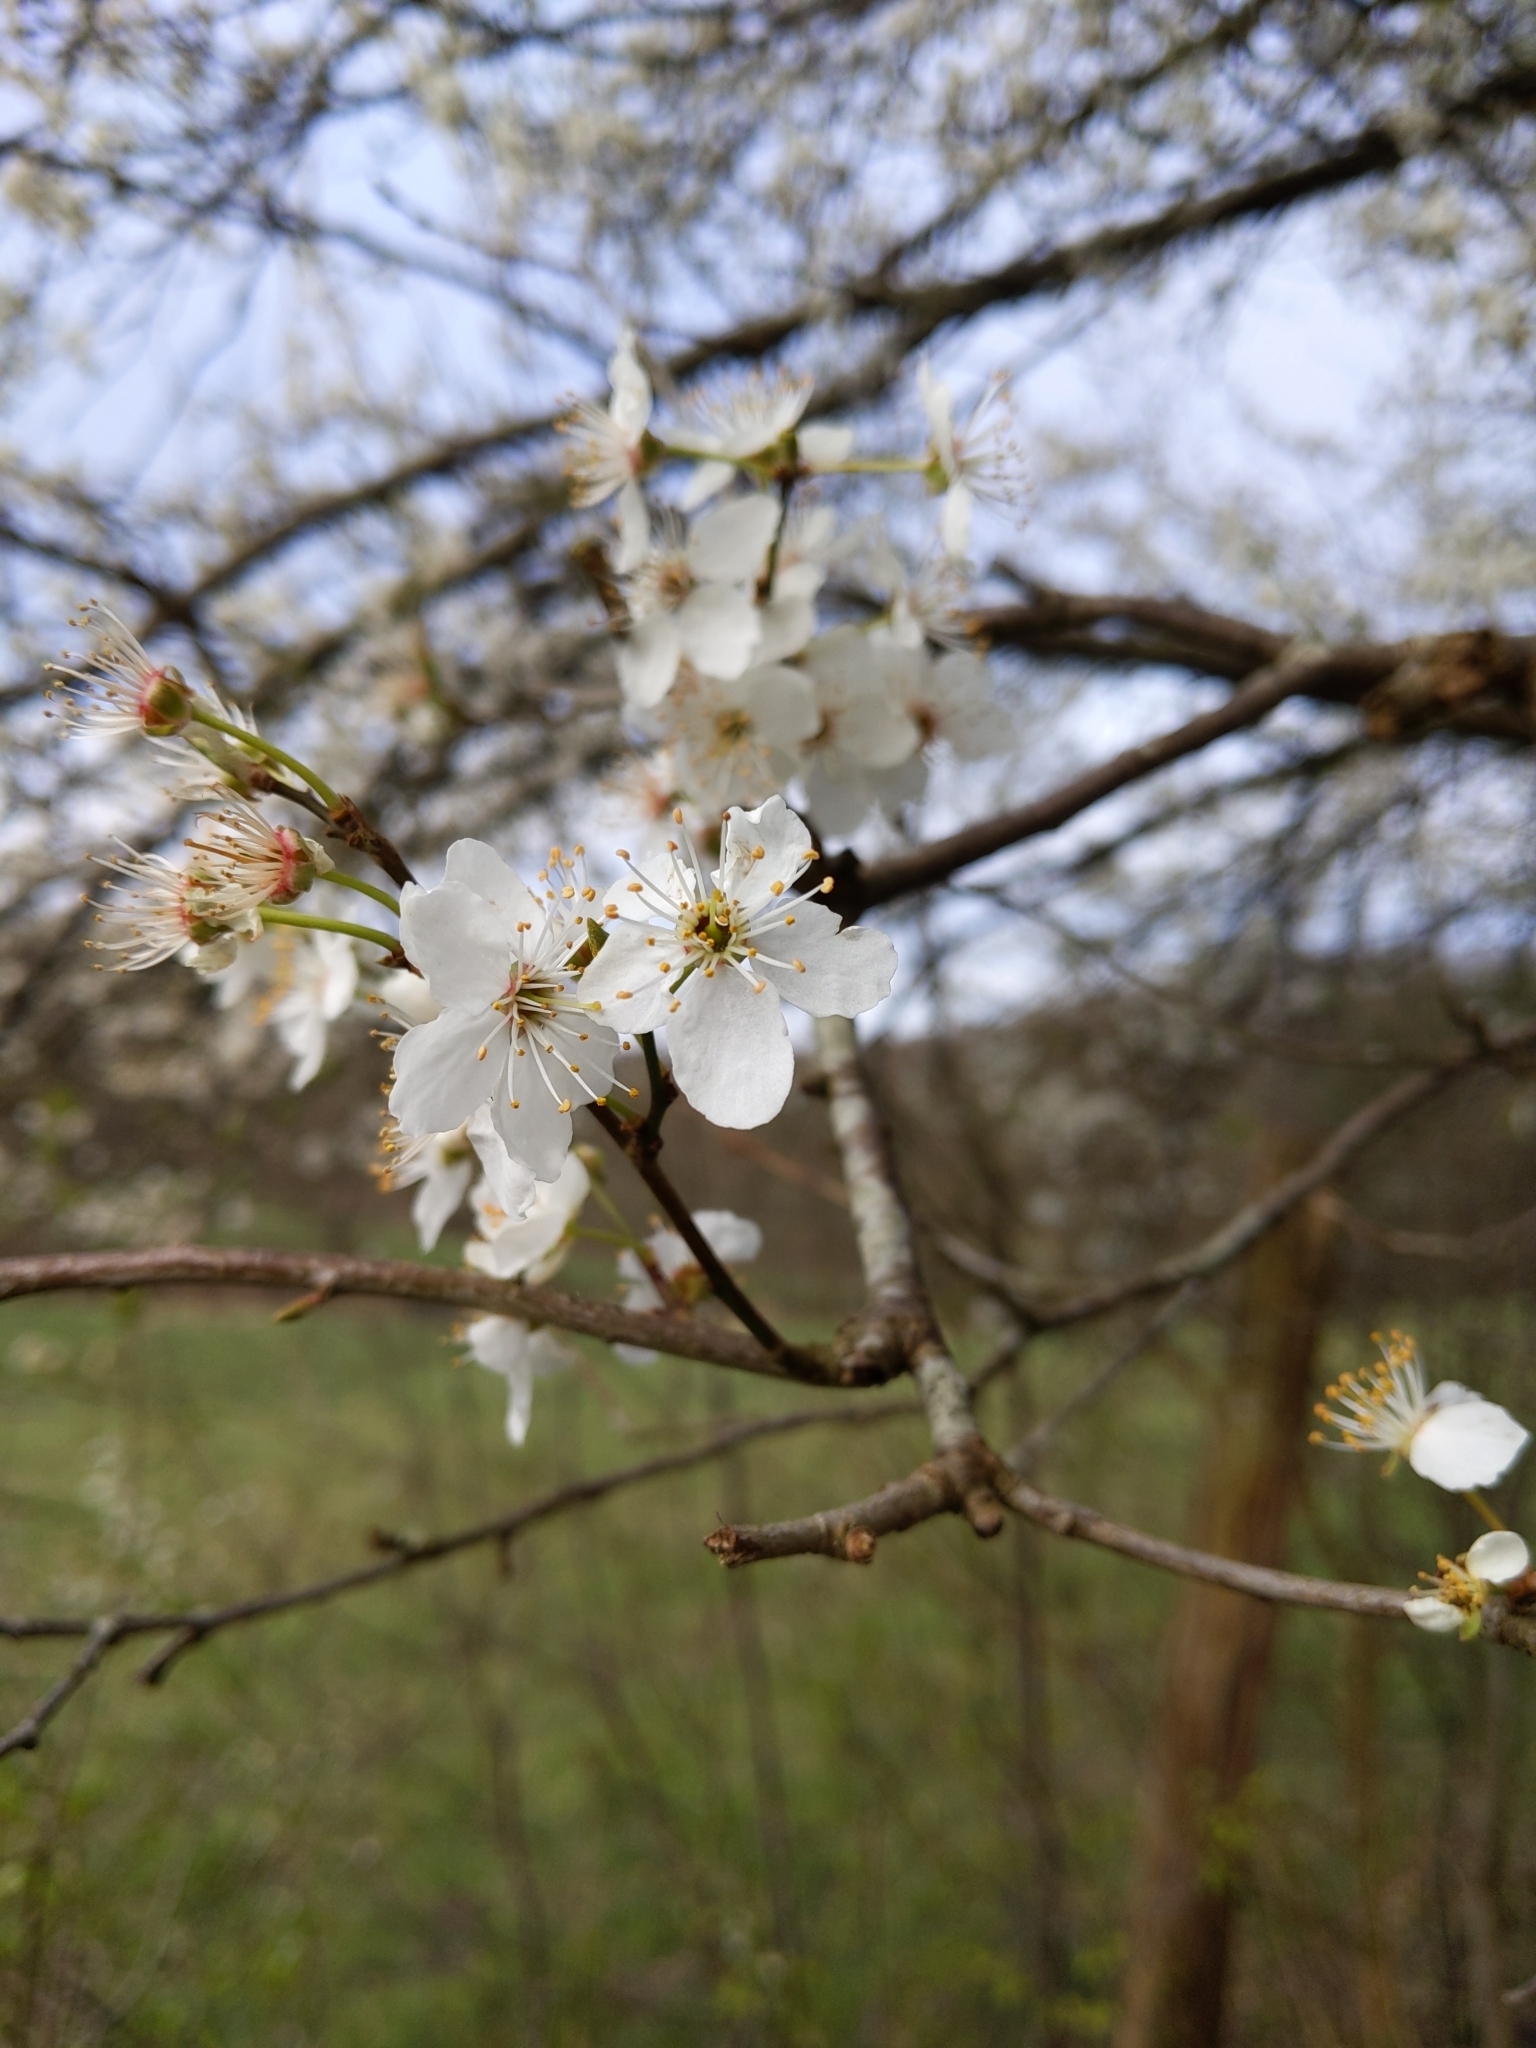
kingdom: Plantae
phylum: Tracheophyta
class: Magnoliopsida
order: Rosales
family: Rosaceae
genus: Prunus
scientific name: Prunus cerasifera
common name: Cherry plum
